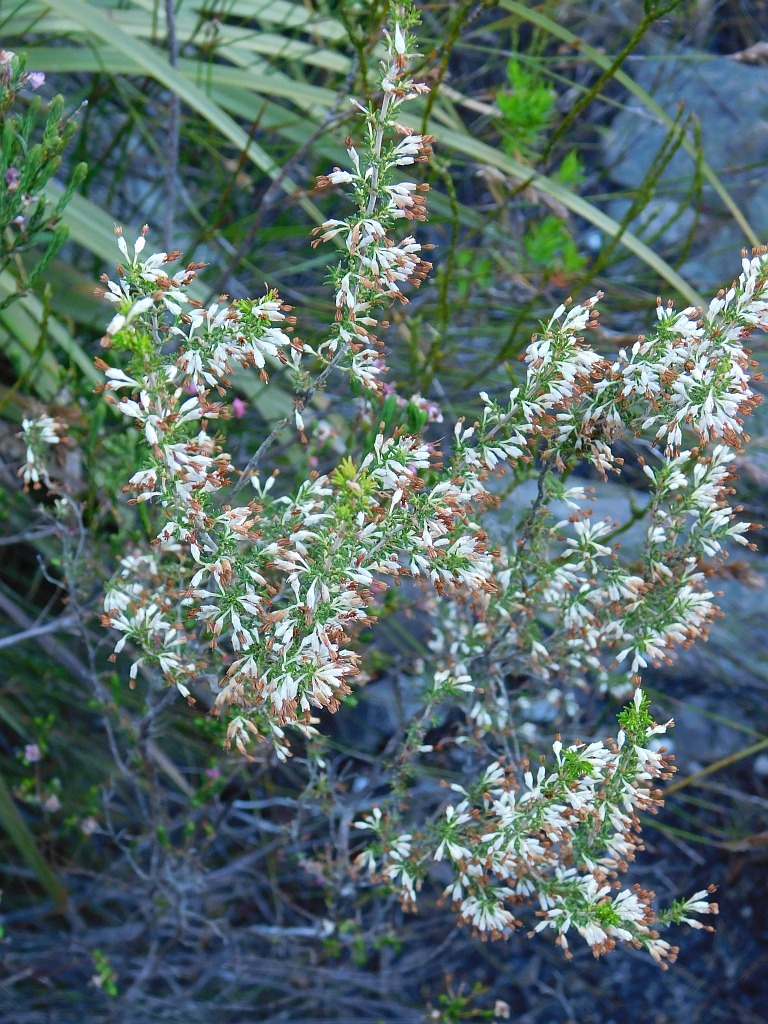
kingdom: Plantae
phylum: Tracheophyta
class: Magnoliopsida
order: Ericales
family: Ericaceae
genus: Erica
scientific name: Erica imbricata
